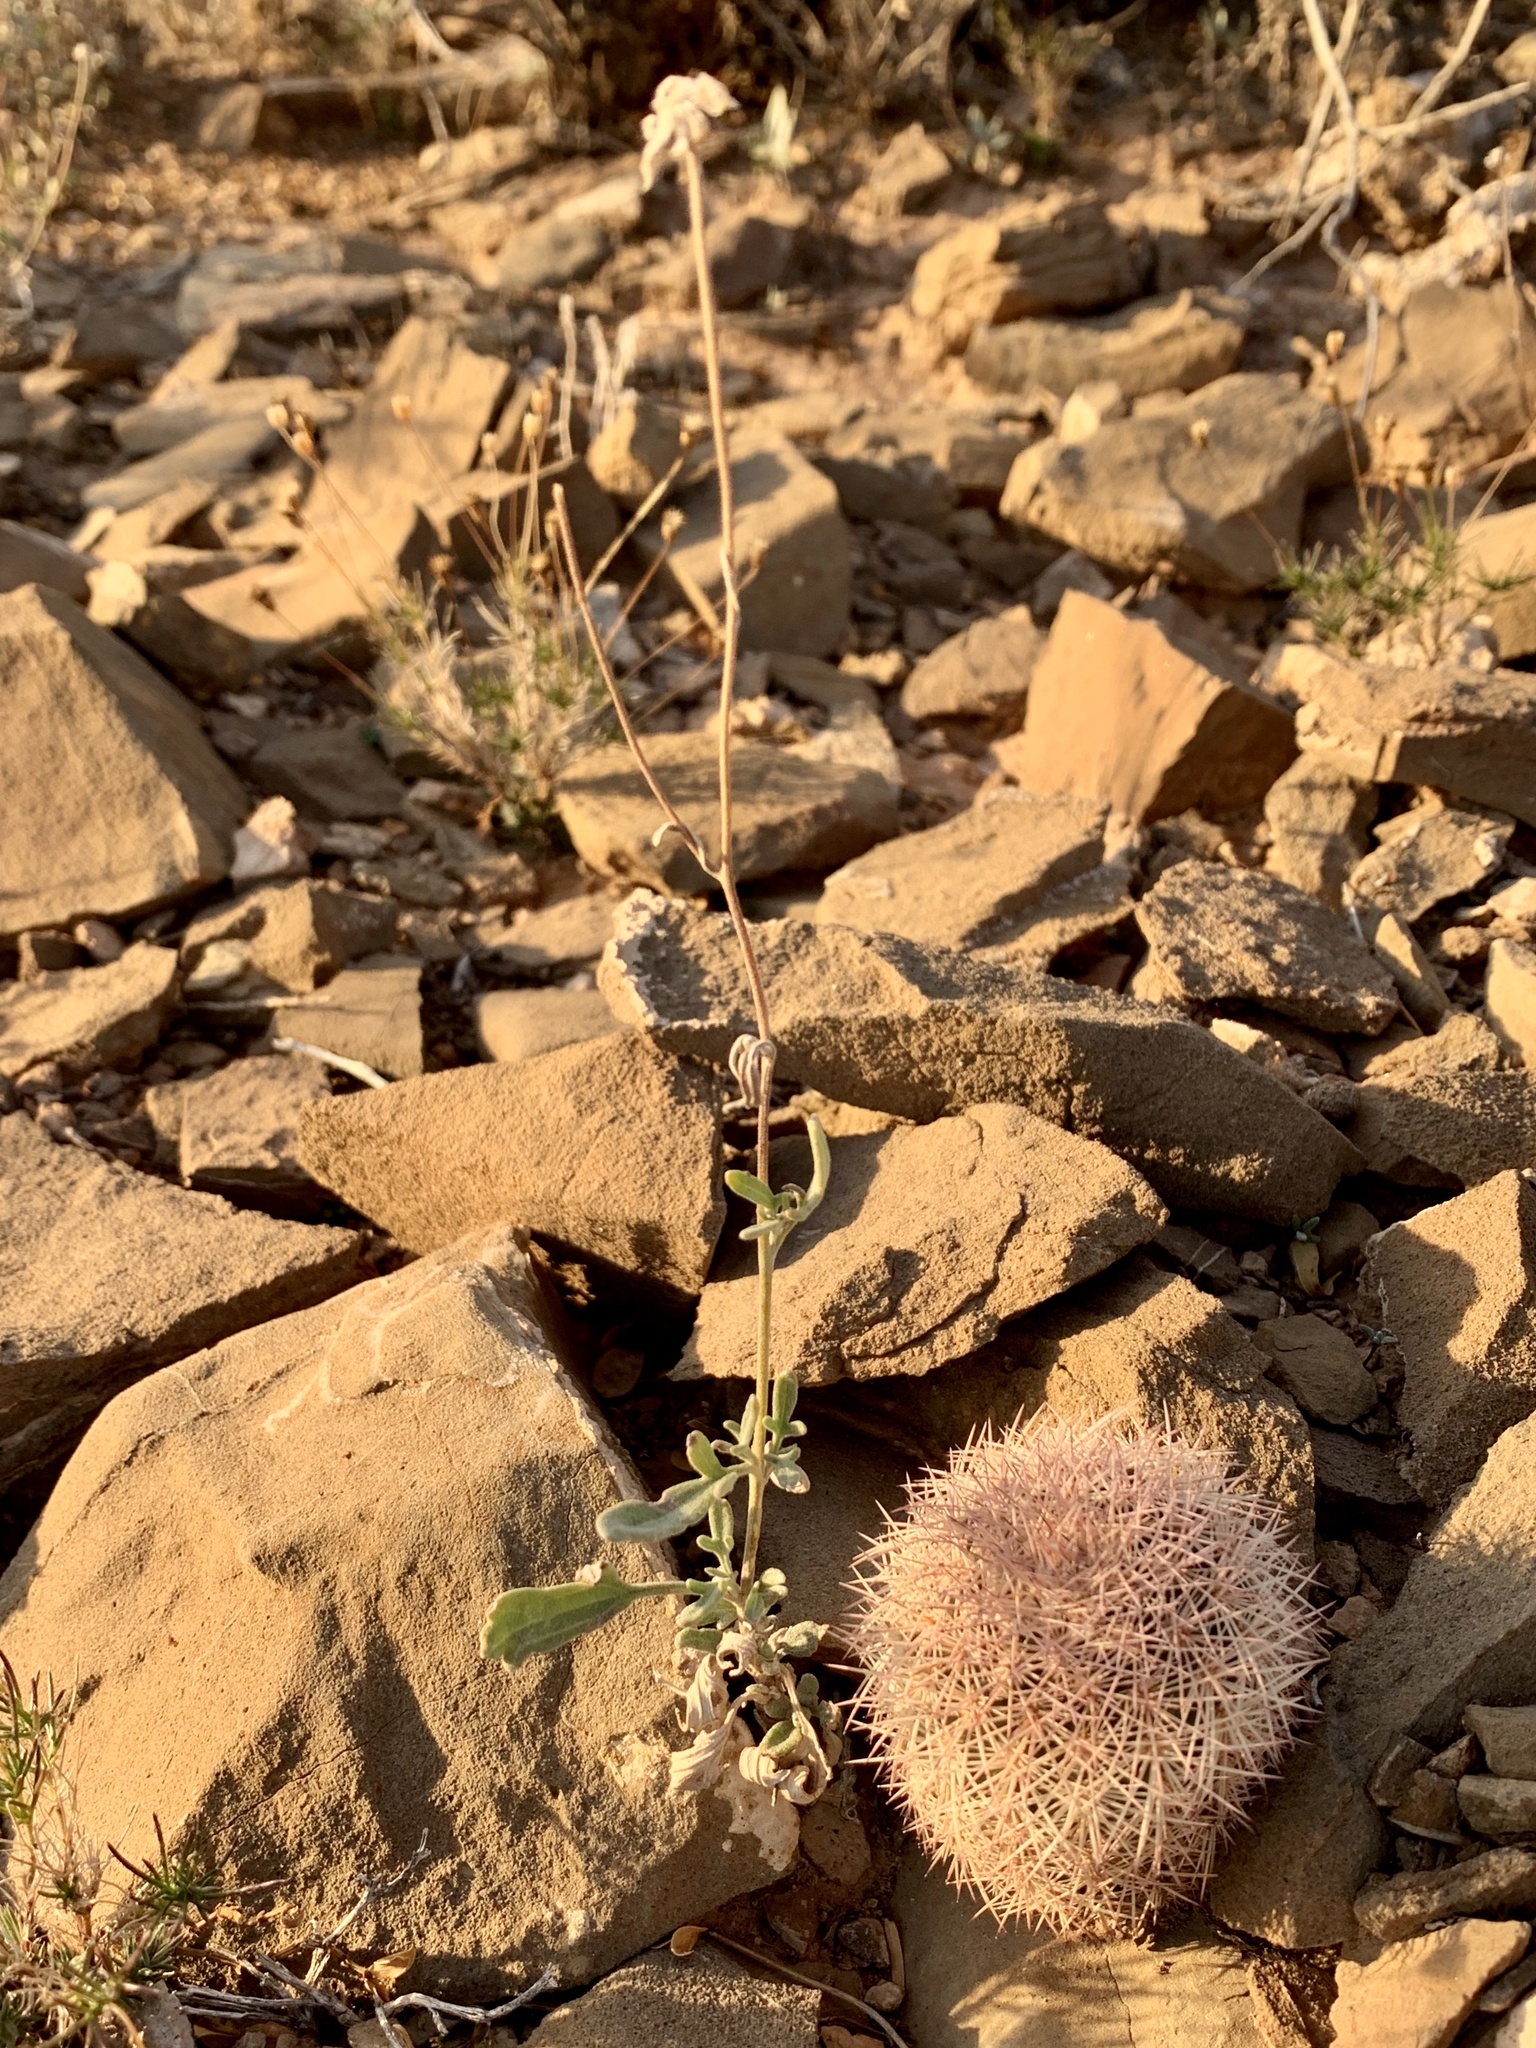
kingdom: Plantae
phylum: Tracheophyta
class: Magnoliopsida
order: Asterales
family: Asteraceae
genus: Picradeniopsis
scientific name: Picradeniopsis absinthifolia
